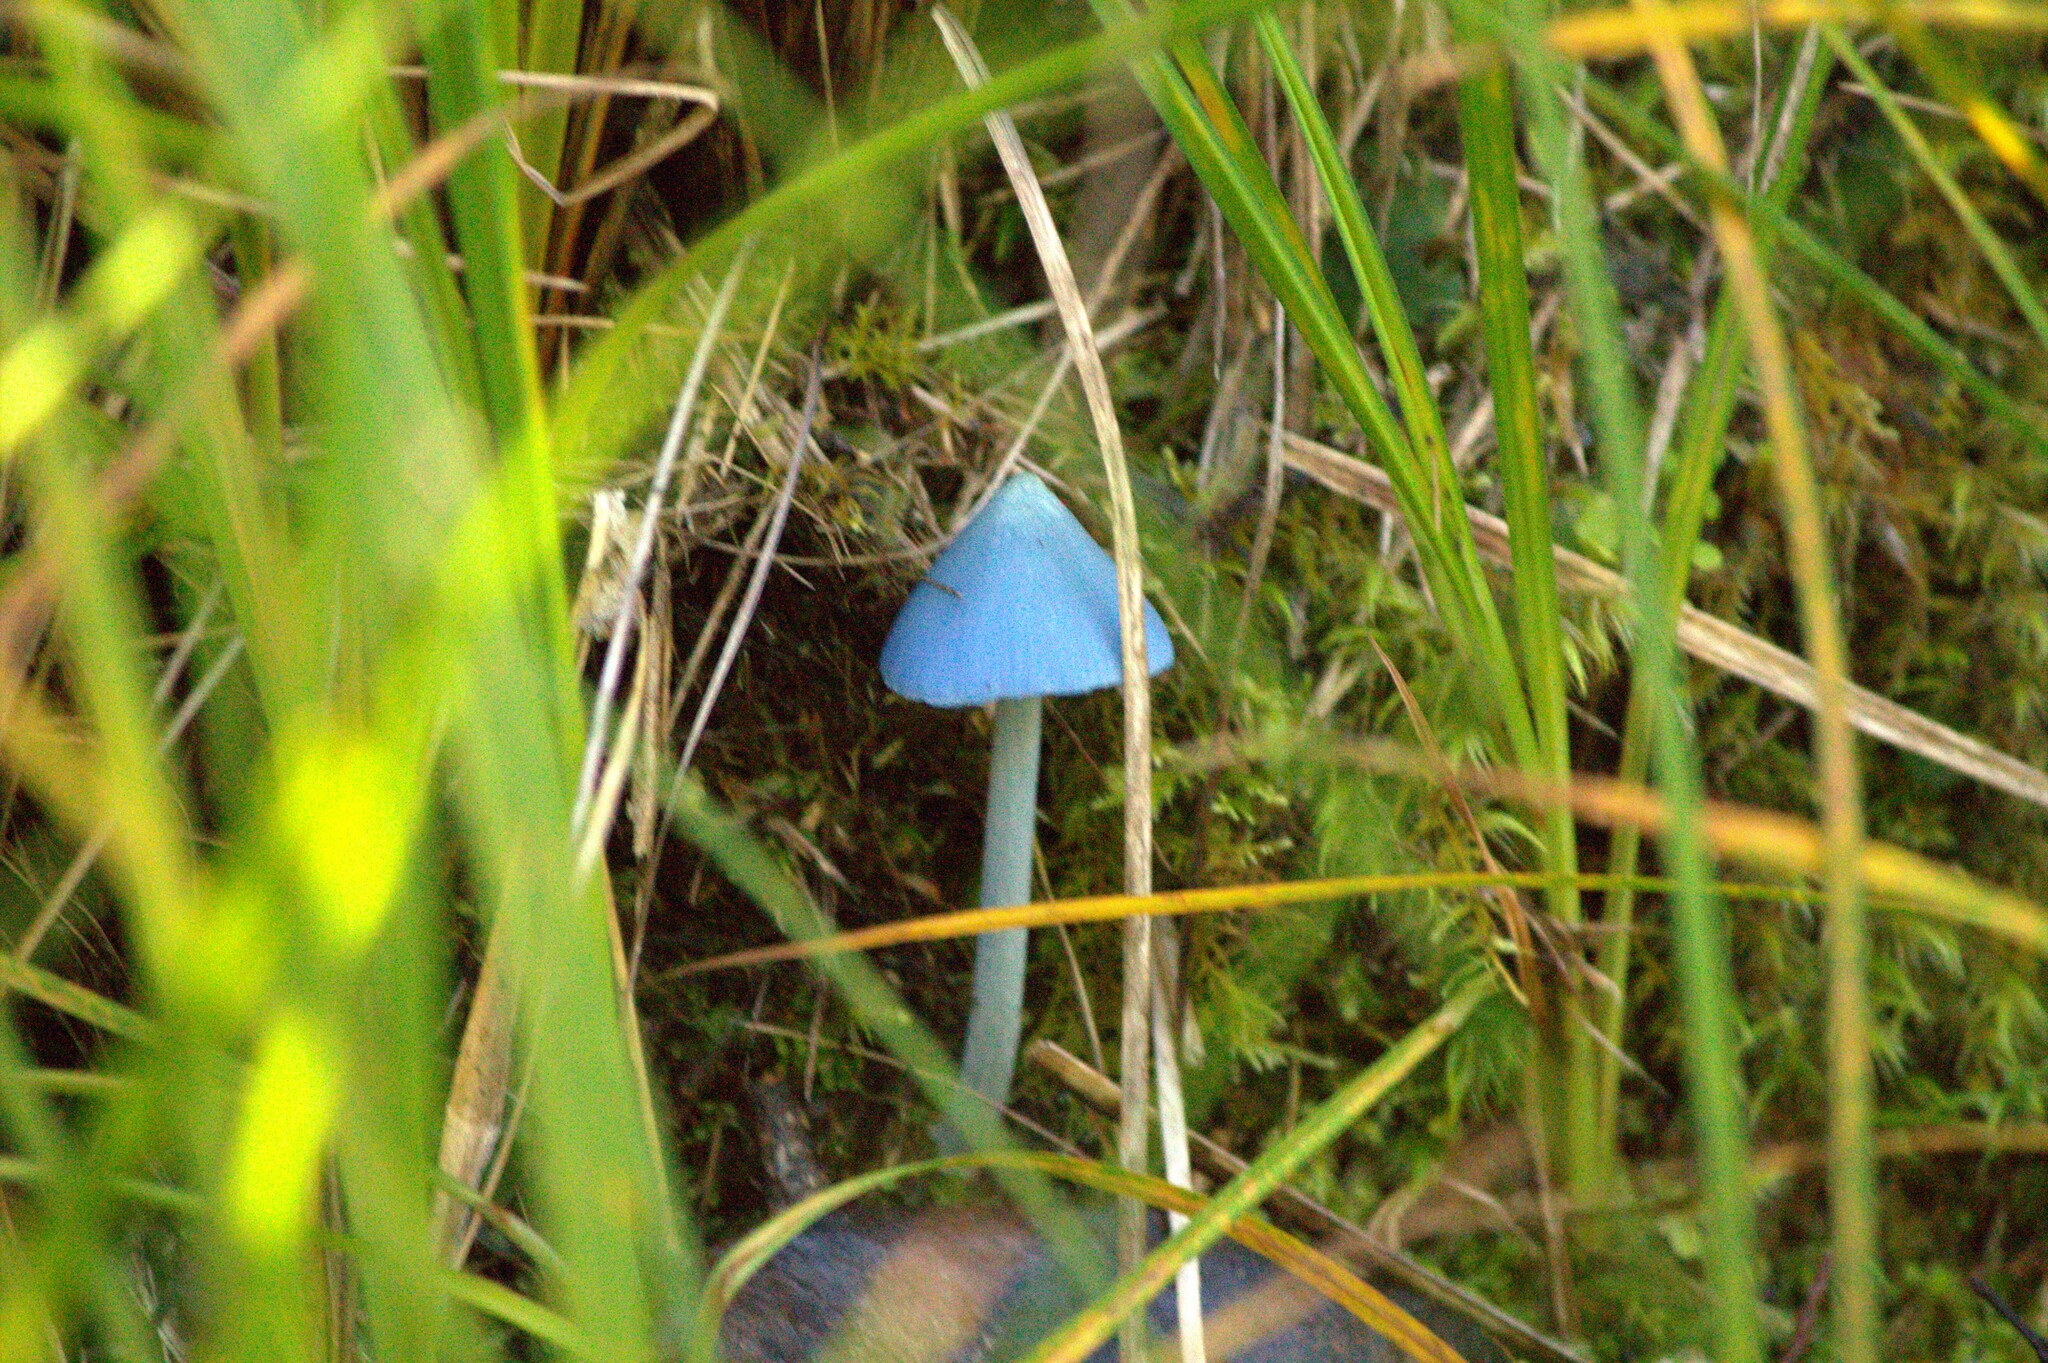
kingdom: Fungi
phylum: Basidiomycota
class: Agaricomycetes
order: Agaricales
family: Entolomataceae
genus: Entoloma
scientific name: Entoloma hochstetteri
